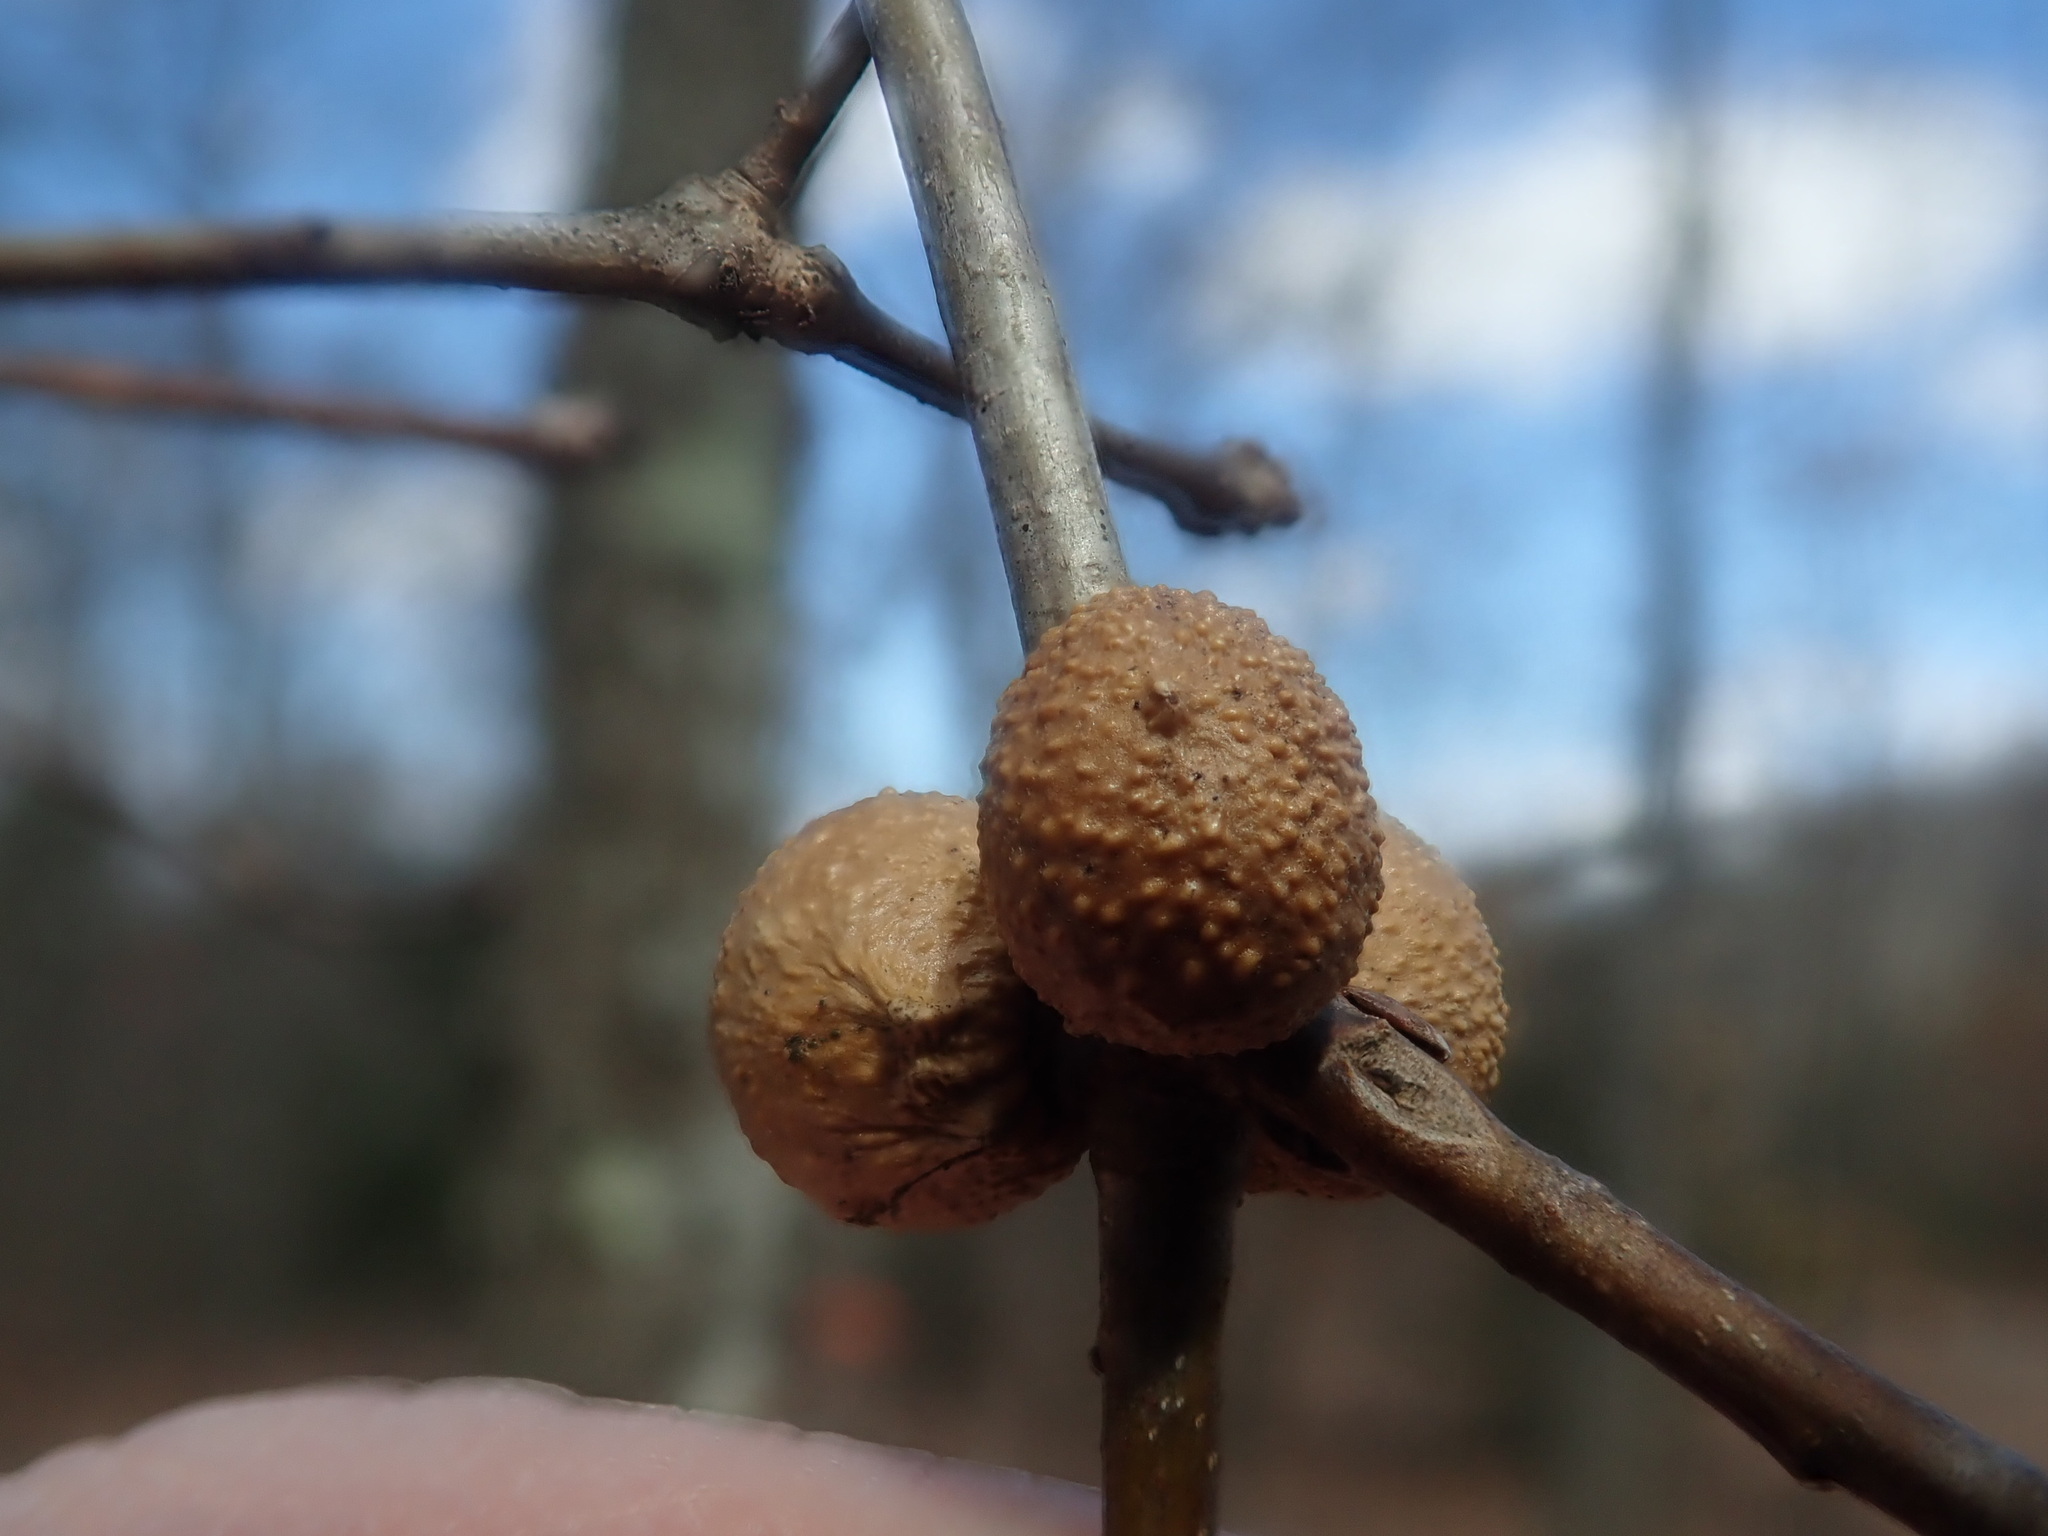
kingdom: Animalia
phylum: Arthropoda
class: Insecta
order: Hymenoptera
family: Cynipidae
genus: Disholcaspis
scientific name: Disholcaspis quercusglobulus
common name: Round bullet gall wasp
